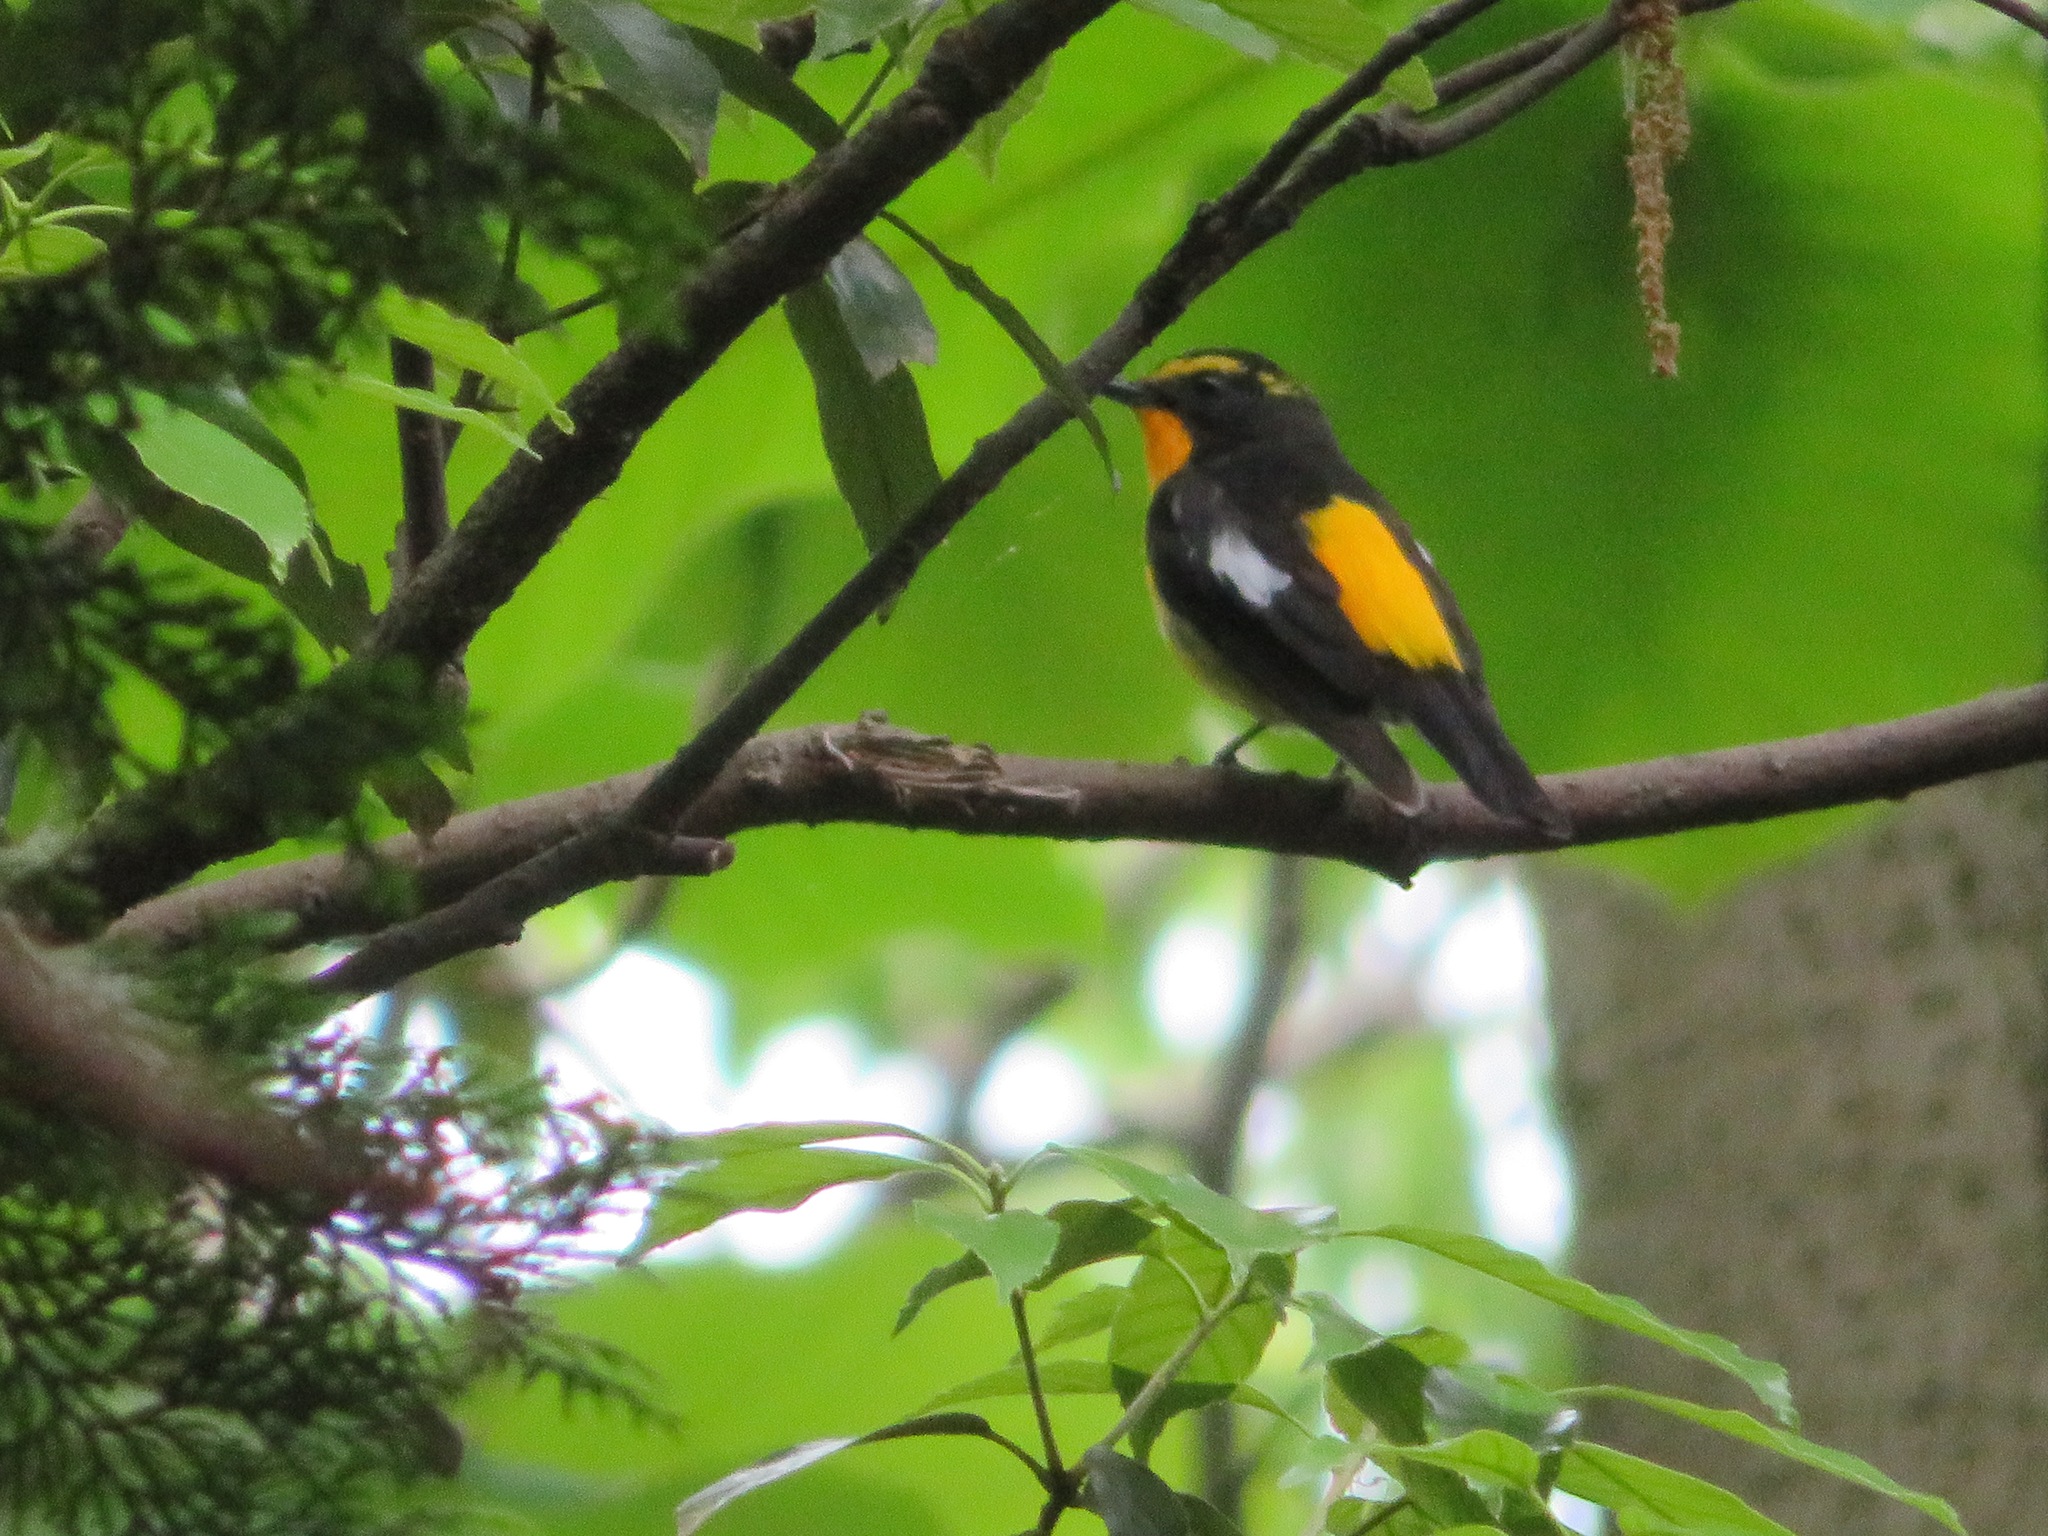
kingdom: Animalia
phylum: Chordata
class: Aves
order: Passeriformes
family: Muscicapidae
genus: Ficedula
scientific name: Ficedula narcissina
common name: Narcissus flycatcher
